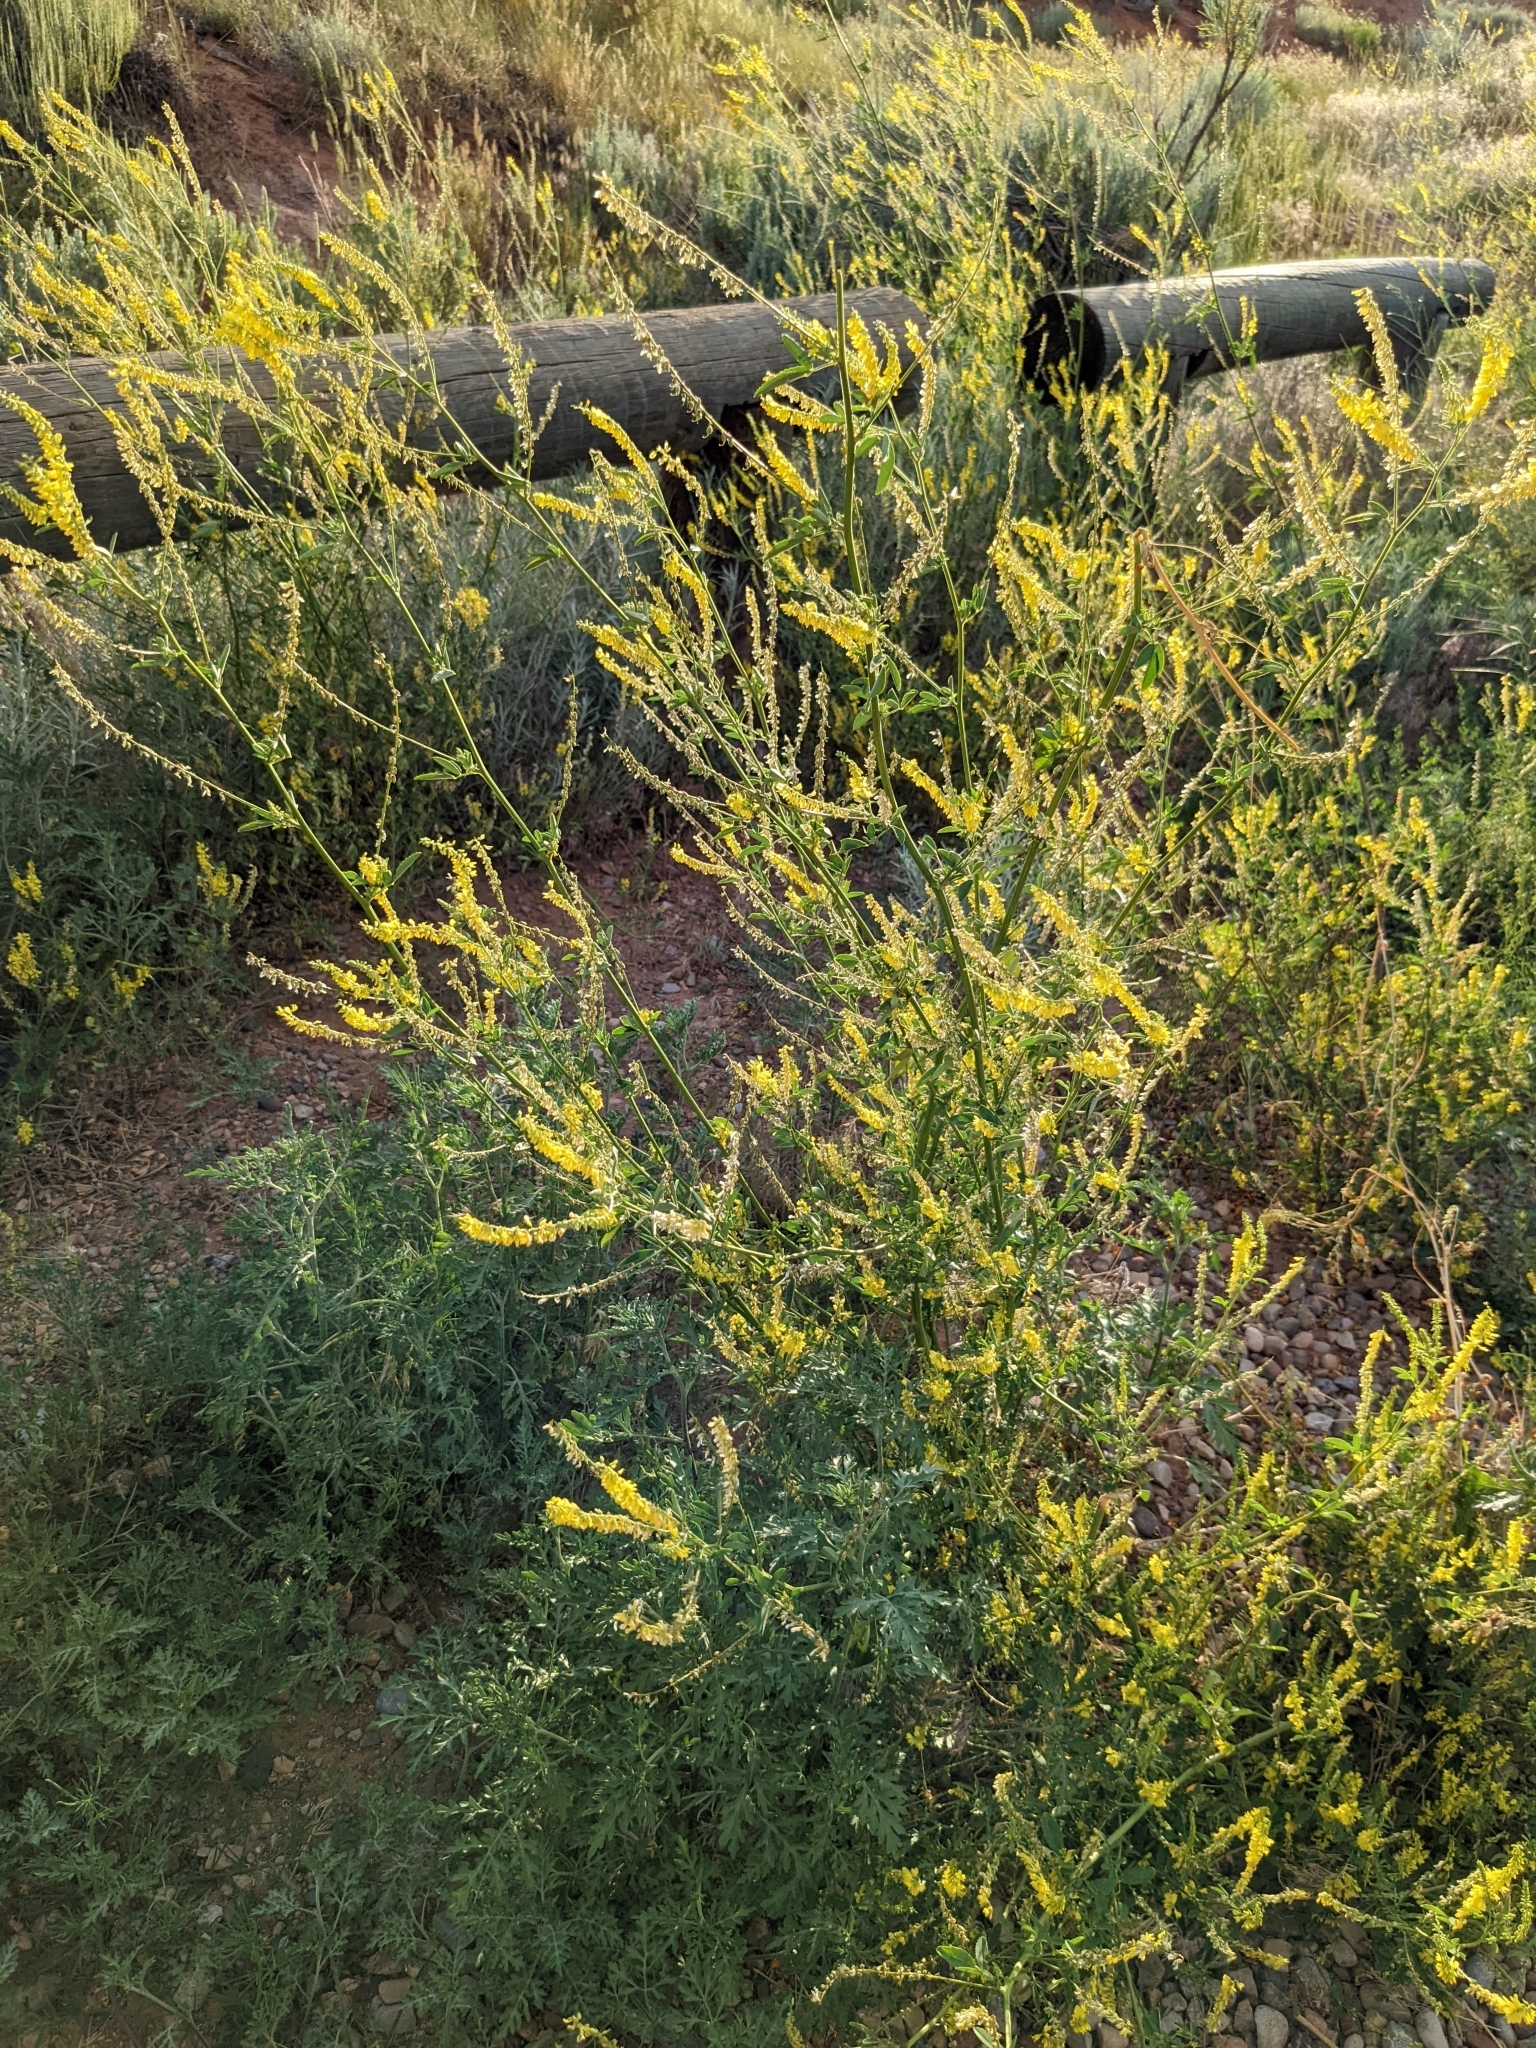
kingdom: Plantae
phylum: Tracheophyta
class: Magnoliopsida
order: Fabales
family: Fabaceae
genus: Melilotus
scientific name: Melilotus officinalis
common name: Sweetclover
